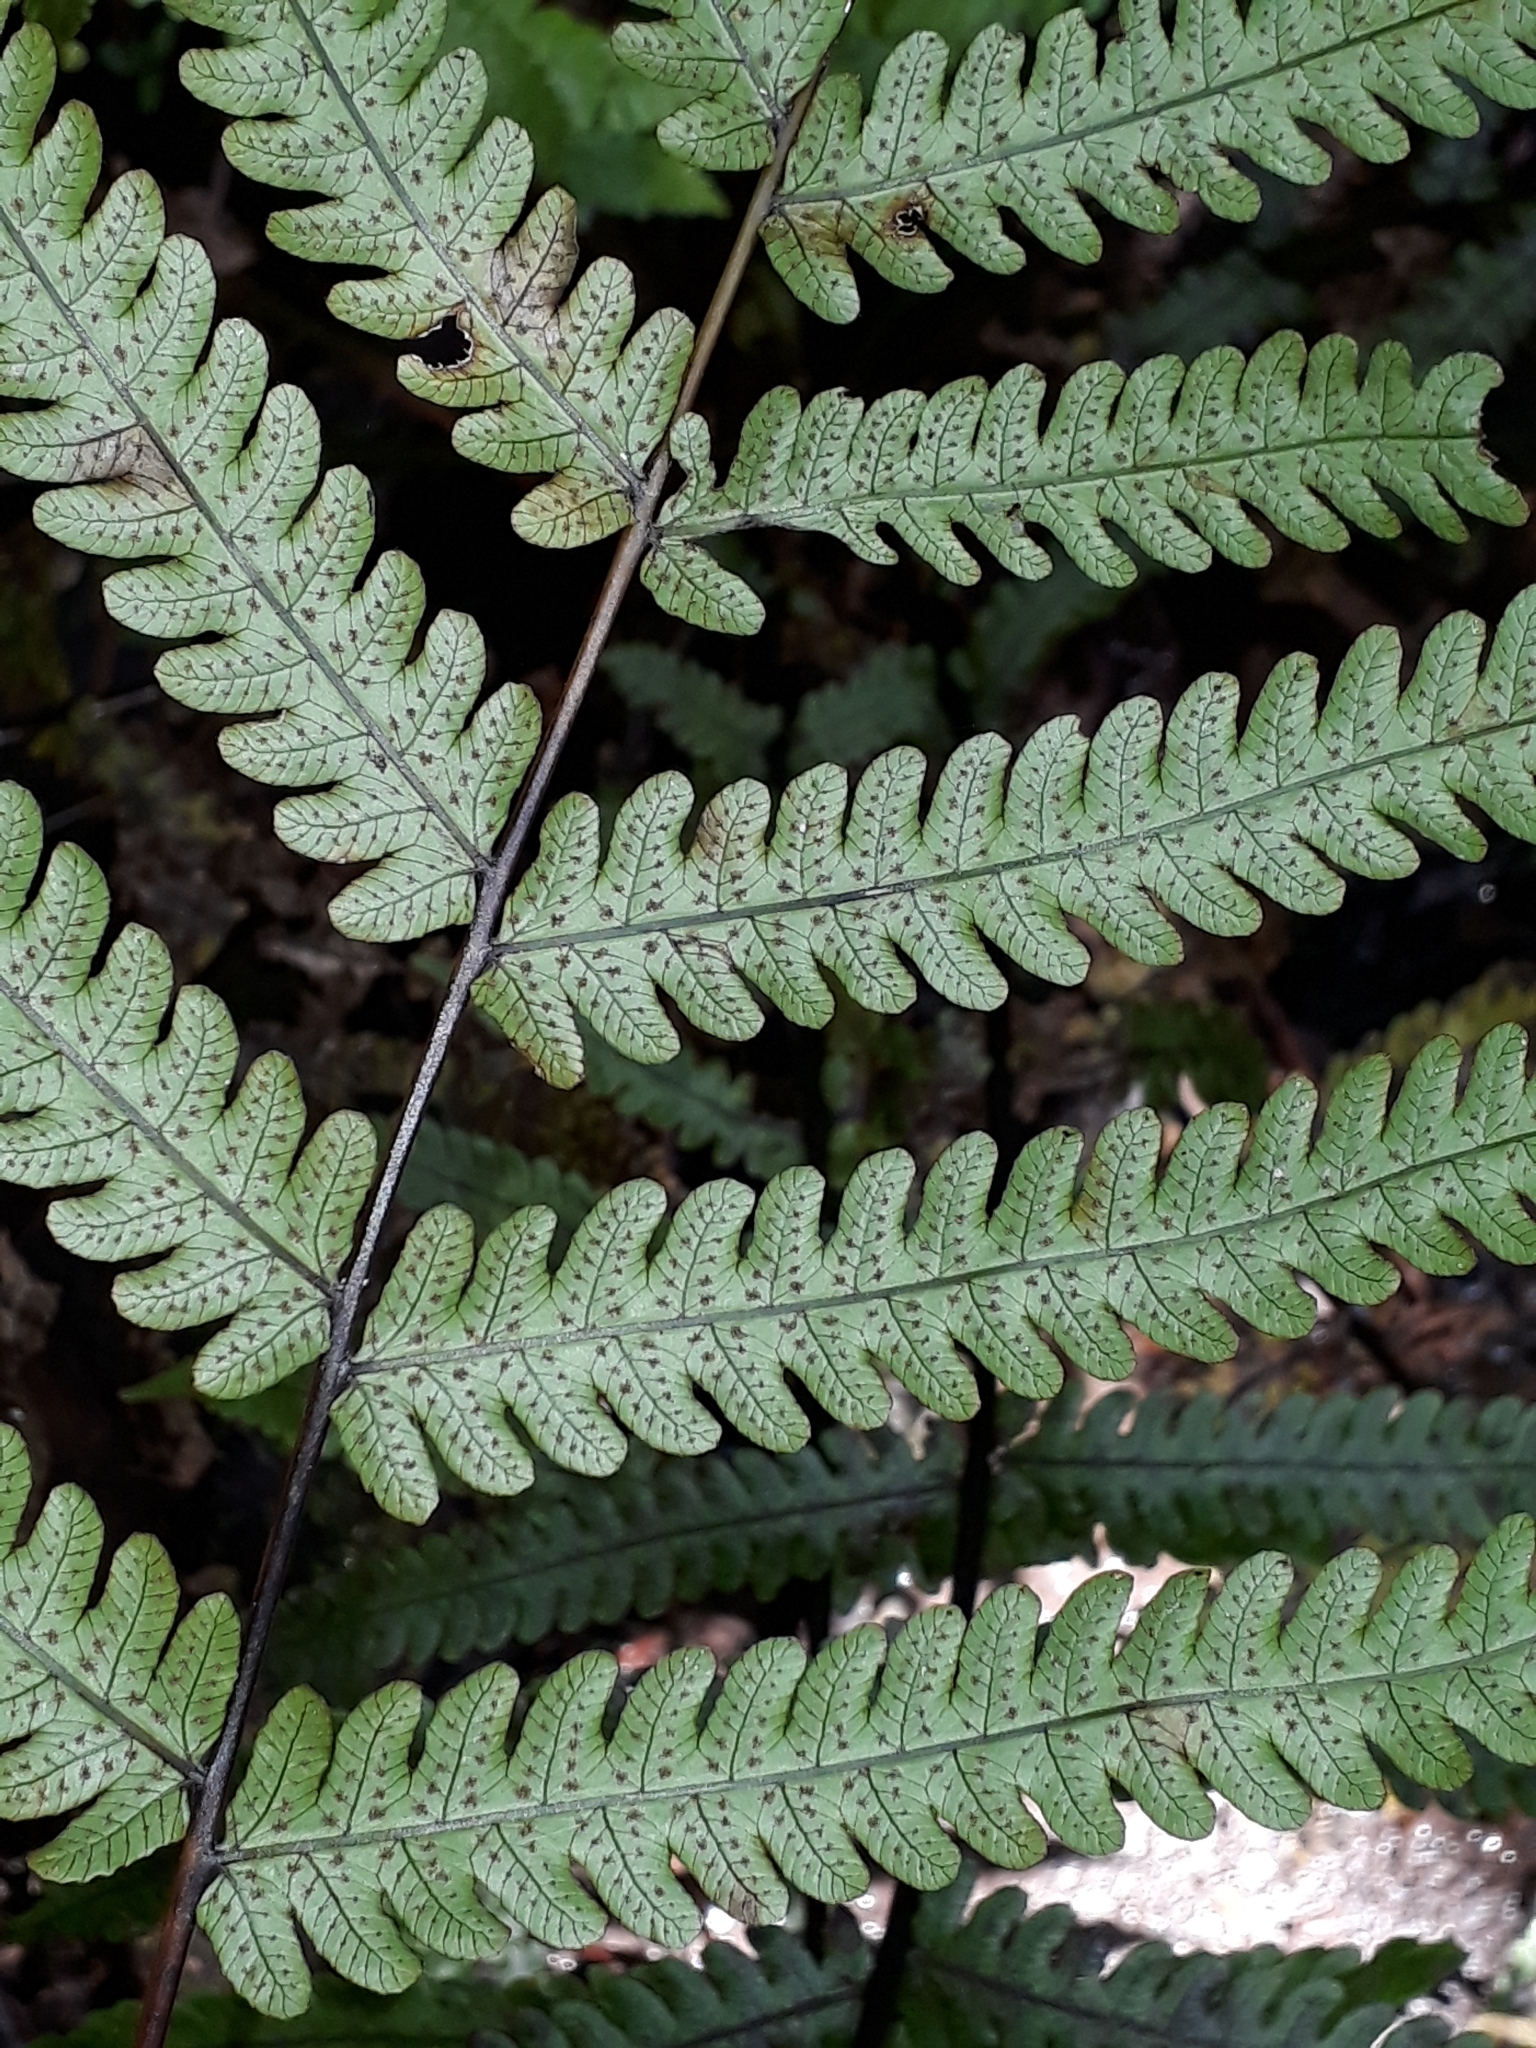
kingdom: Plantae
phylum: Tracheophyta
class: Polypodiopsida
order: Polypodiales
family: Thelypteridaceae
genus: Pakau
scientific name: Pakau pennigera
